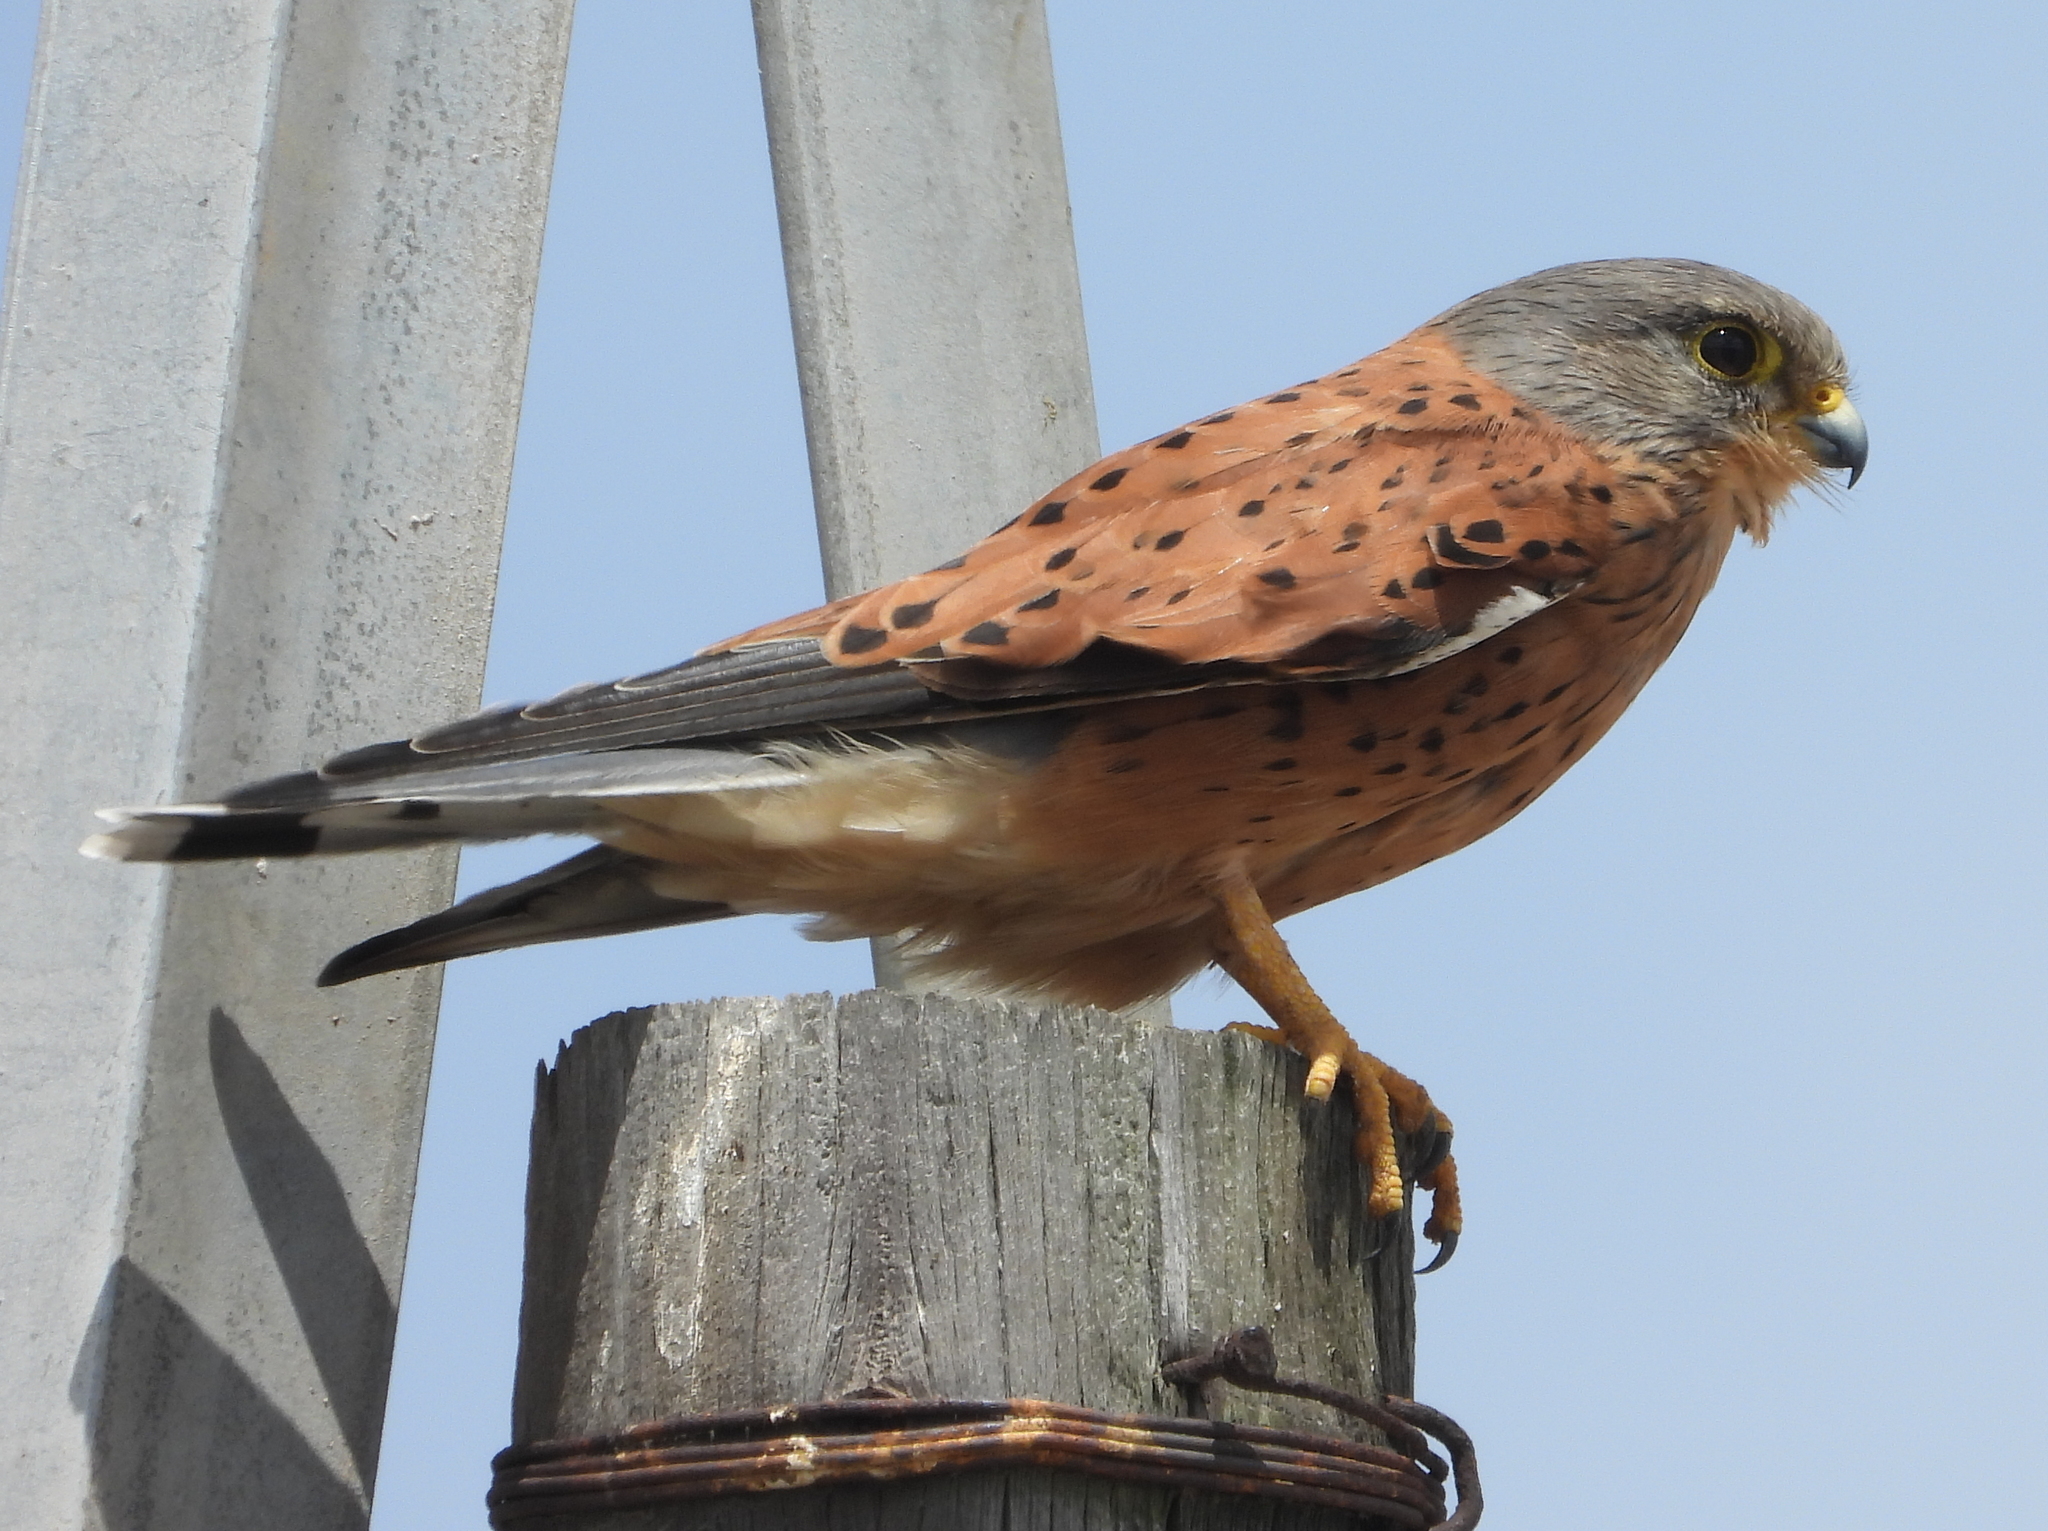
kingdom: Animalia
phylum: Chordata
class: Aves
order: Falconiformes
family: Falconidae
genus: Falco
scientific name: Falco rupicolus
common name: Rock kestrel
